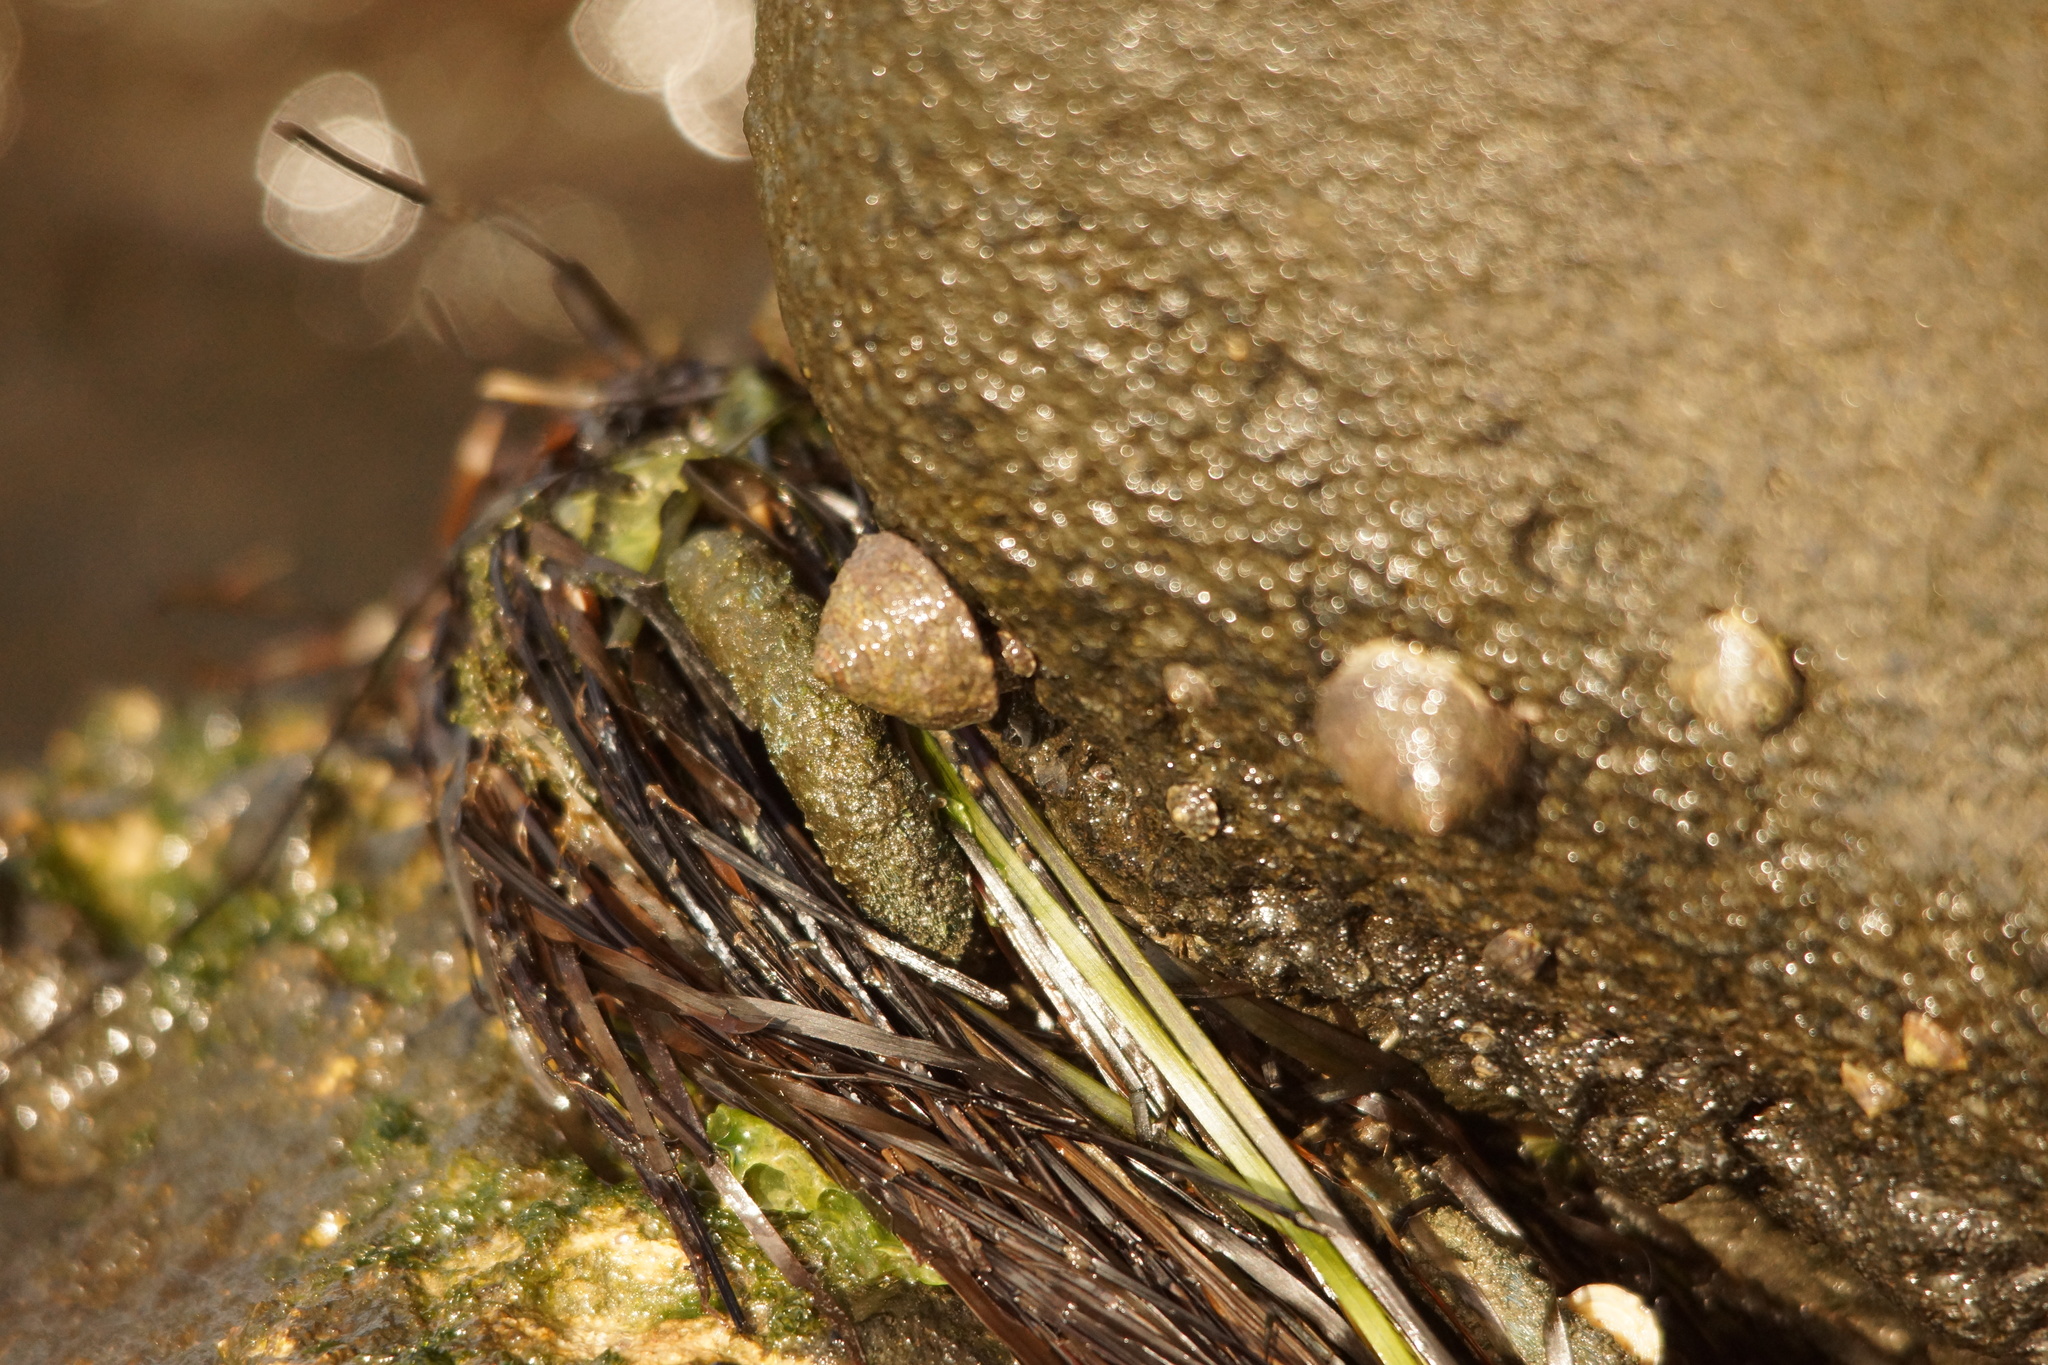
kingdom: Animalia
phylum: Mollusca
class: Gastropoda
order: Littorinimorpha
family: Littorinidae
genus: Bembicium
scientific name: Bembicium
